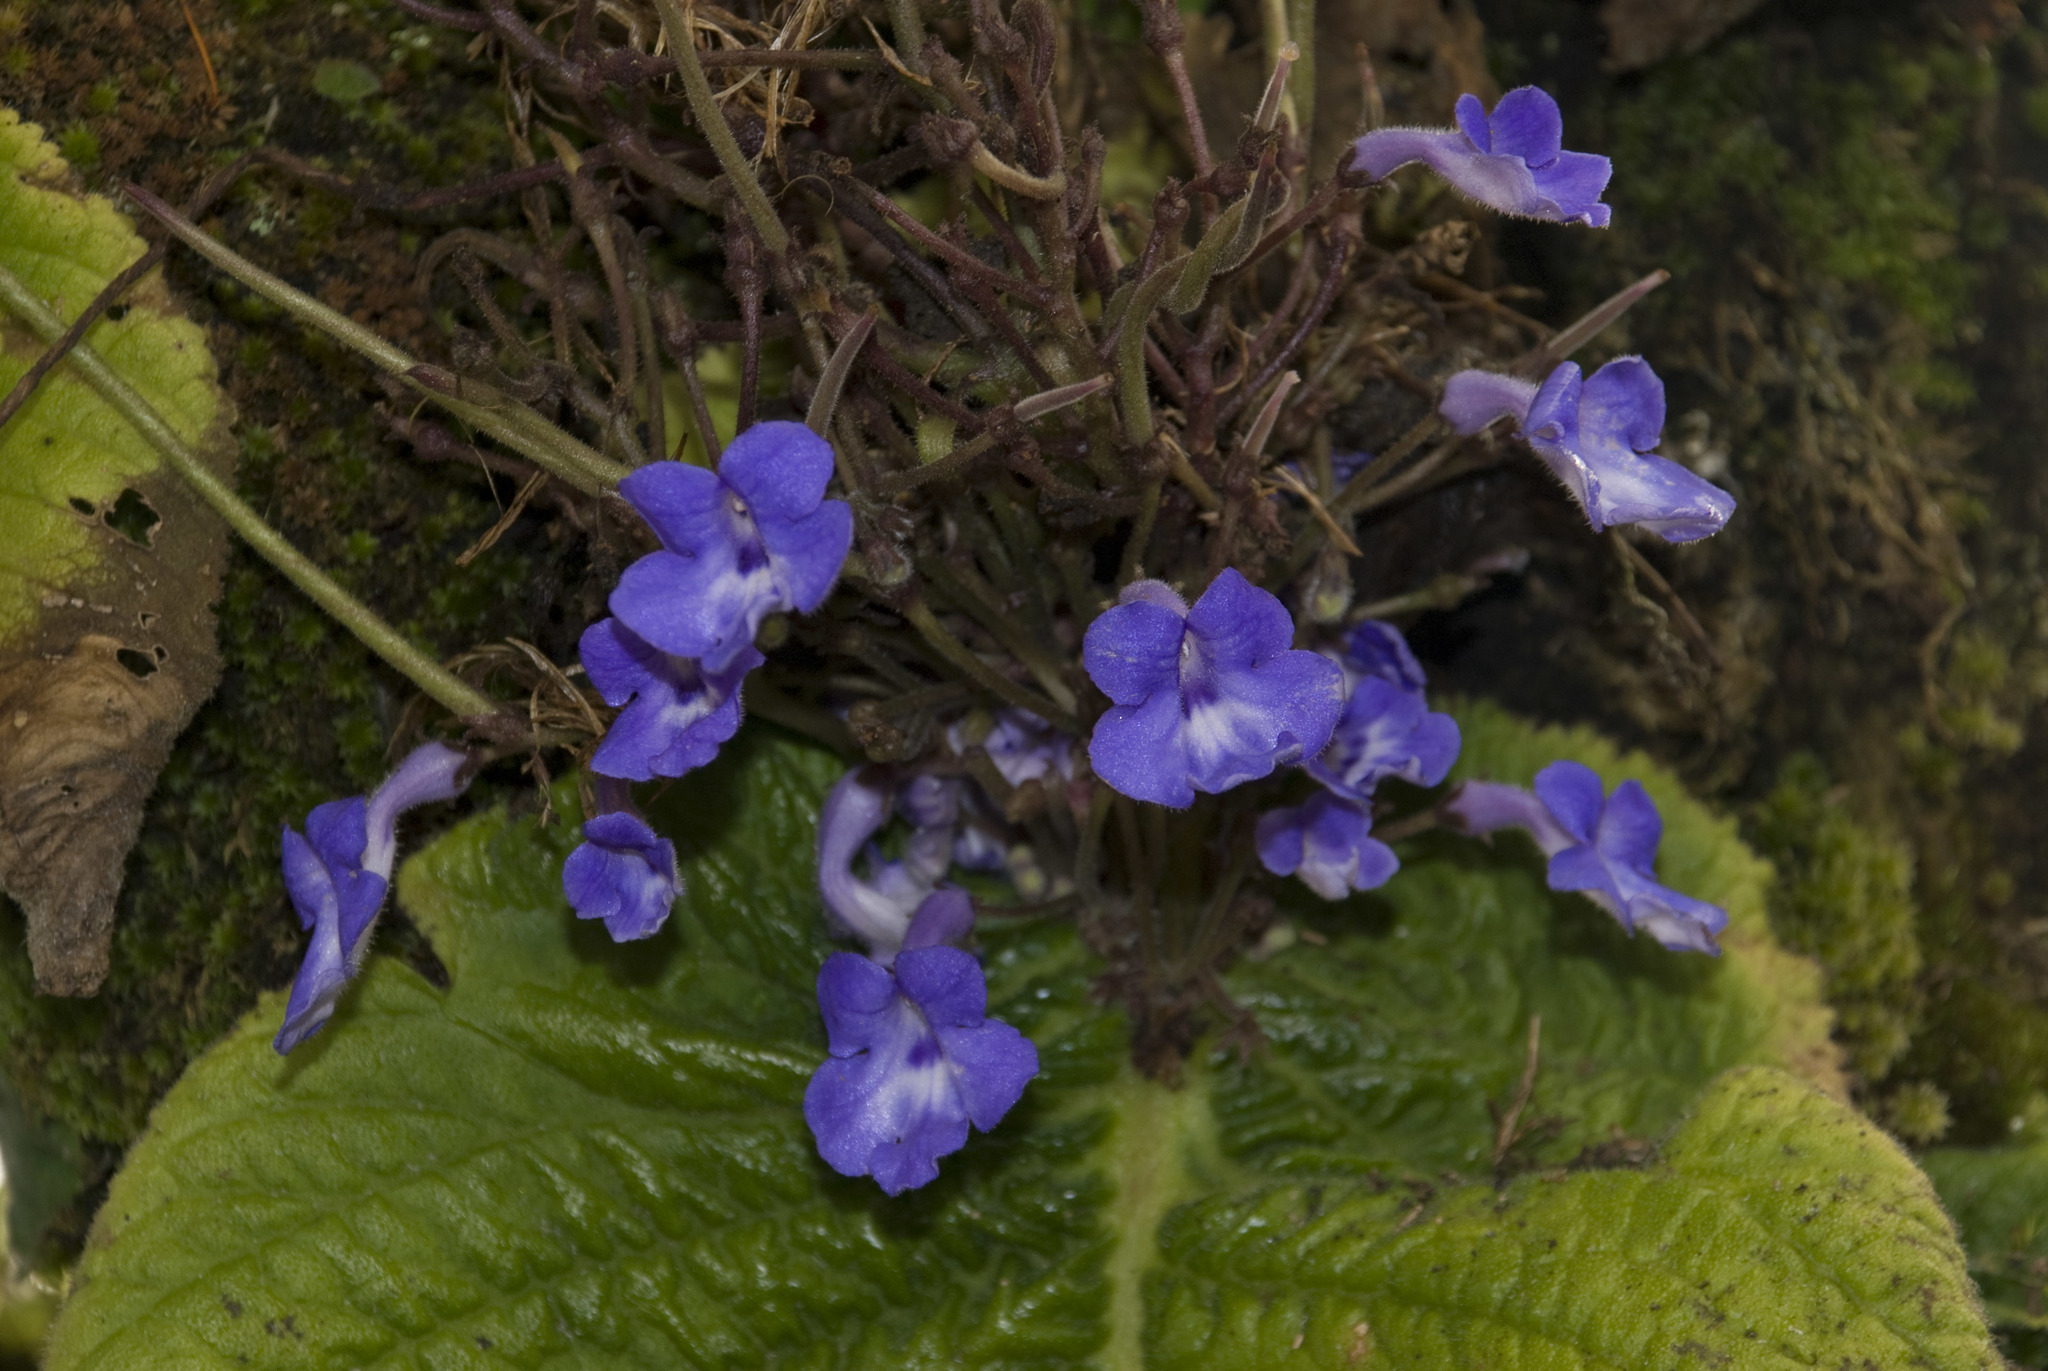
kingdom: Plantae
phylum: Tracheophyta
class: Magnoliopsida
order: Lamiales
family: Gesneriaceae
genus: Streptocarpus
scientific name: Streptocarpus goetzei
